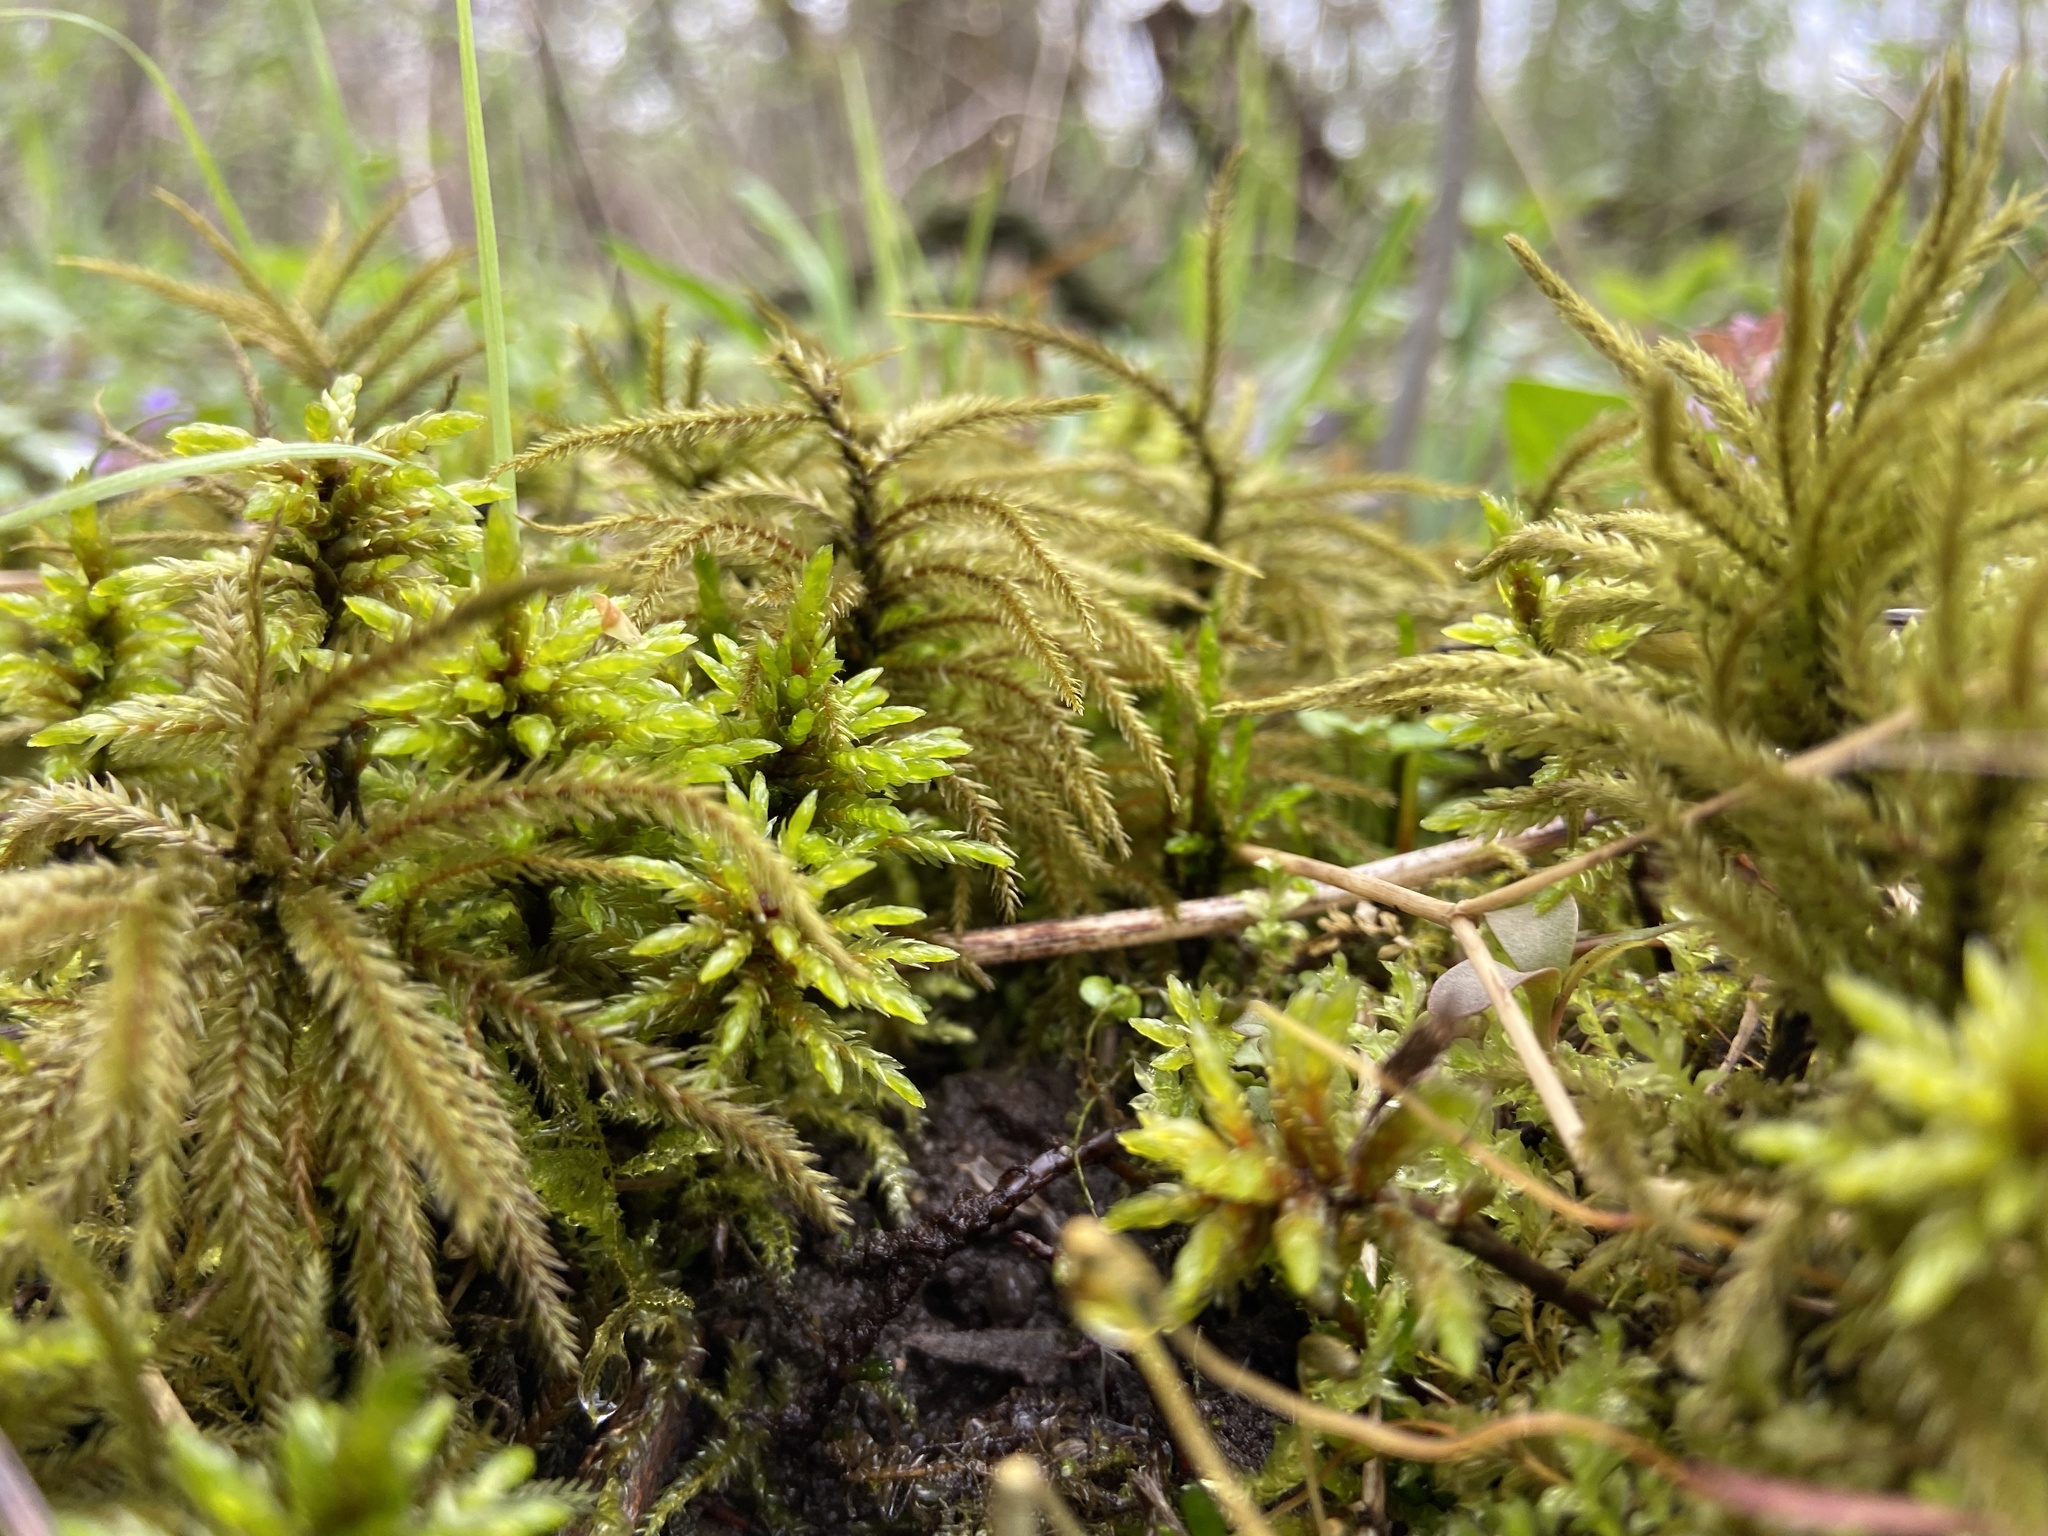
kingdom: Plantae
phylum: Bryophyta
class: Bryopsida
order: Hypnales
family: Climaciaceae
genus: Climacium
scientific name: Climacium americanum
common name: American tree moss
